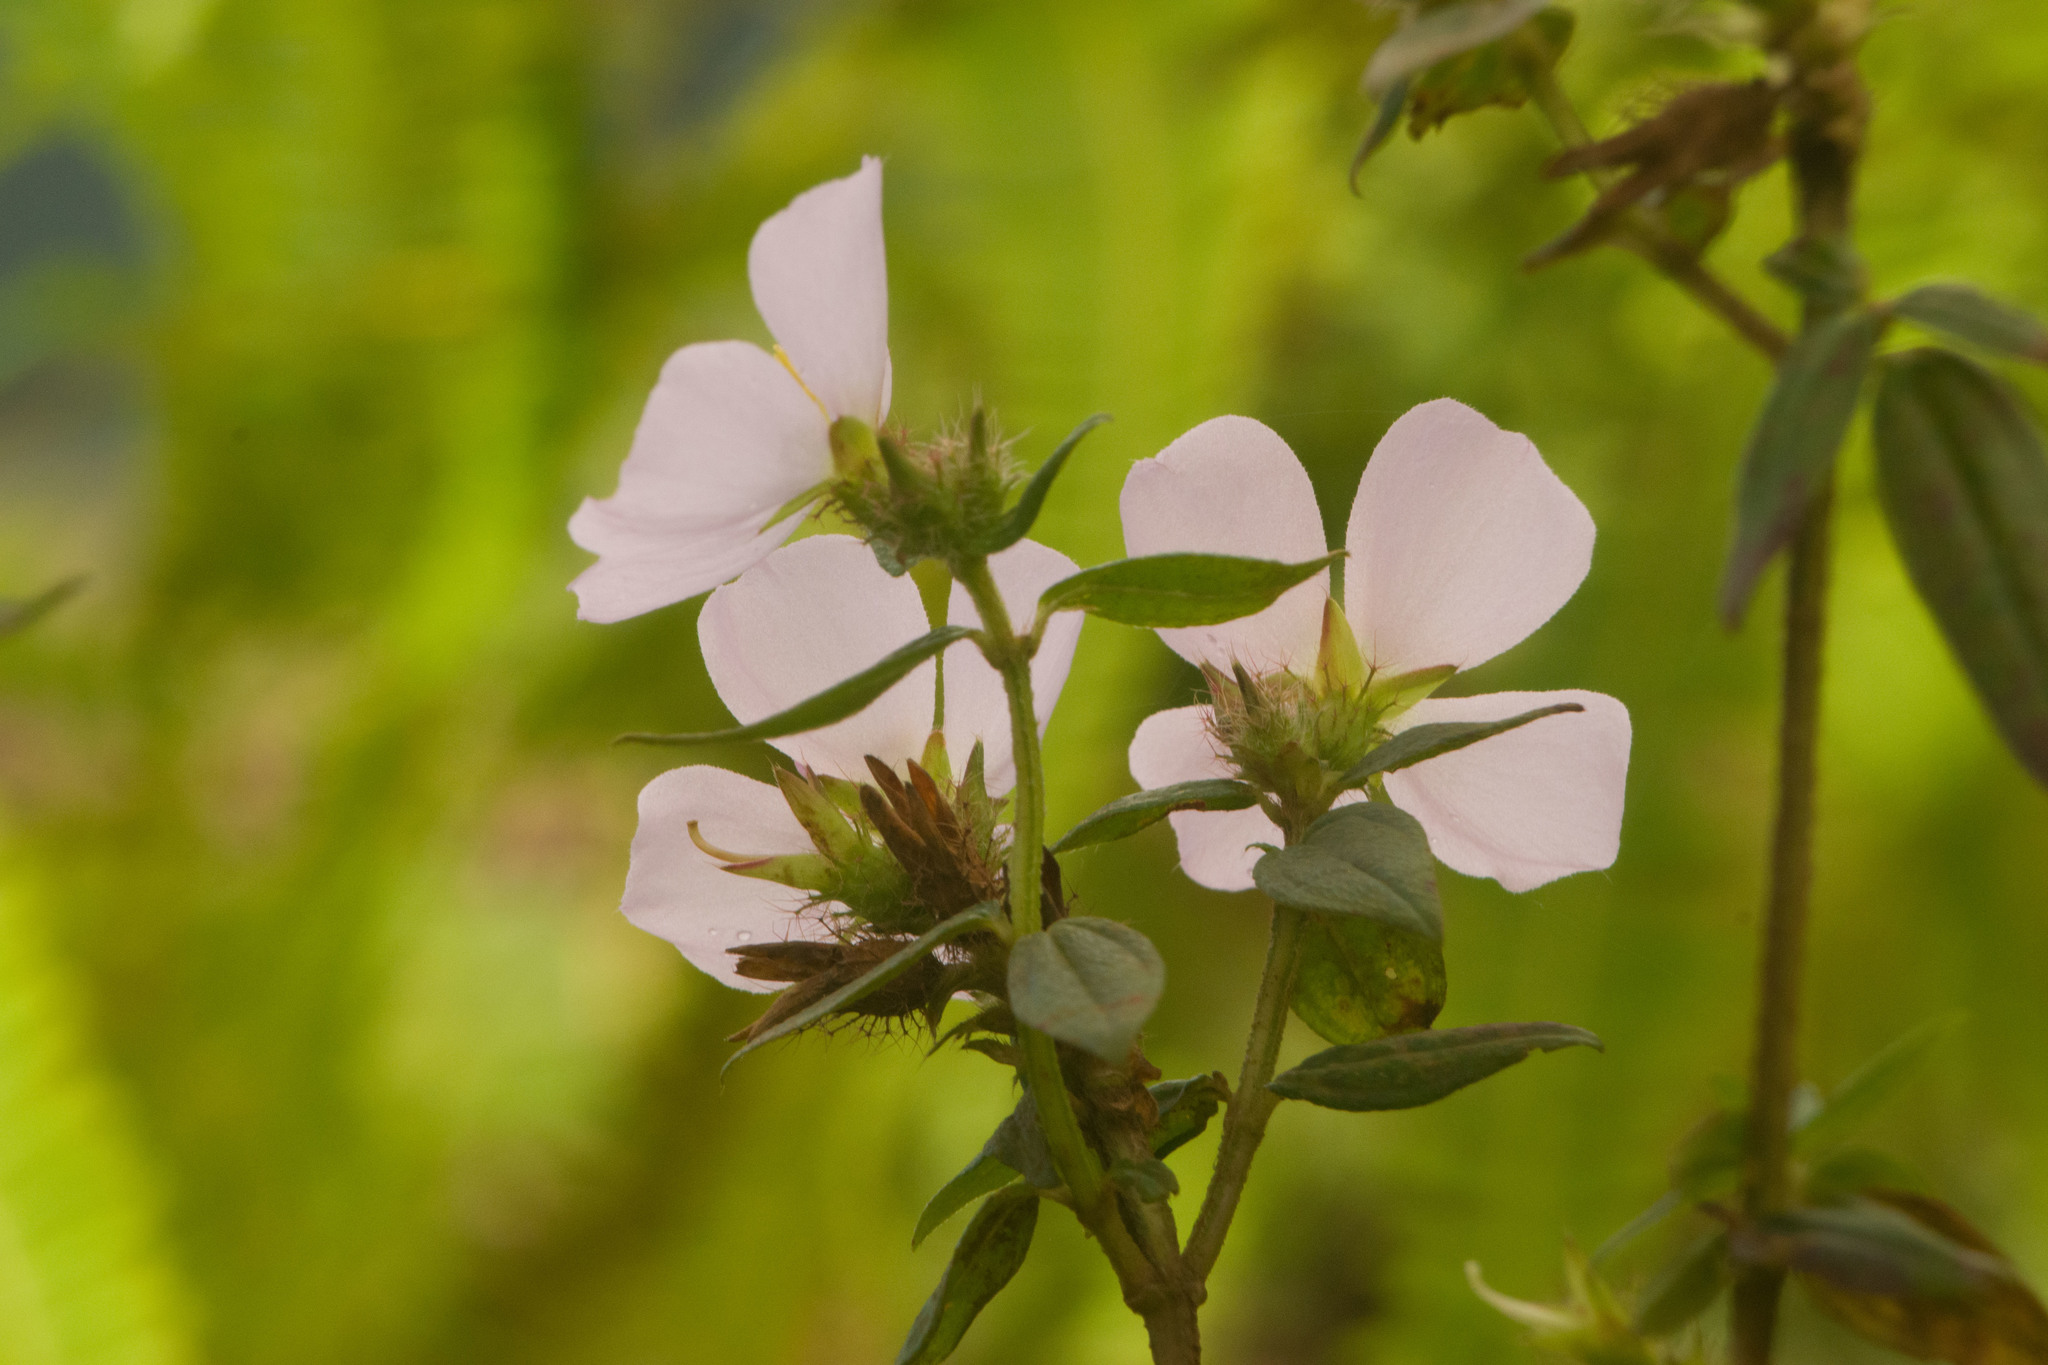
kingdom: Plantae
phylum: Tracheophyta
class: Magnoliopsida
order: Myrtales
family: Melastomataceae
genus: Pterolepis
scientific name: Pterolepis glomerata
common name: False meadowbeauty
